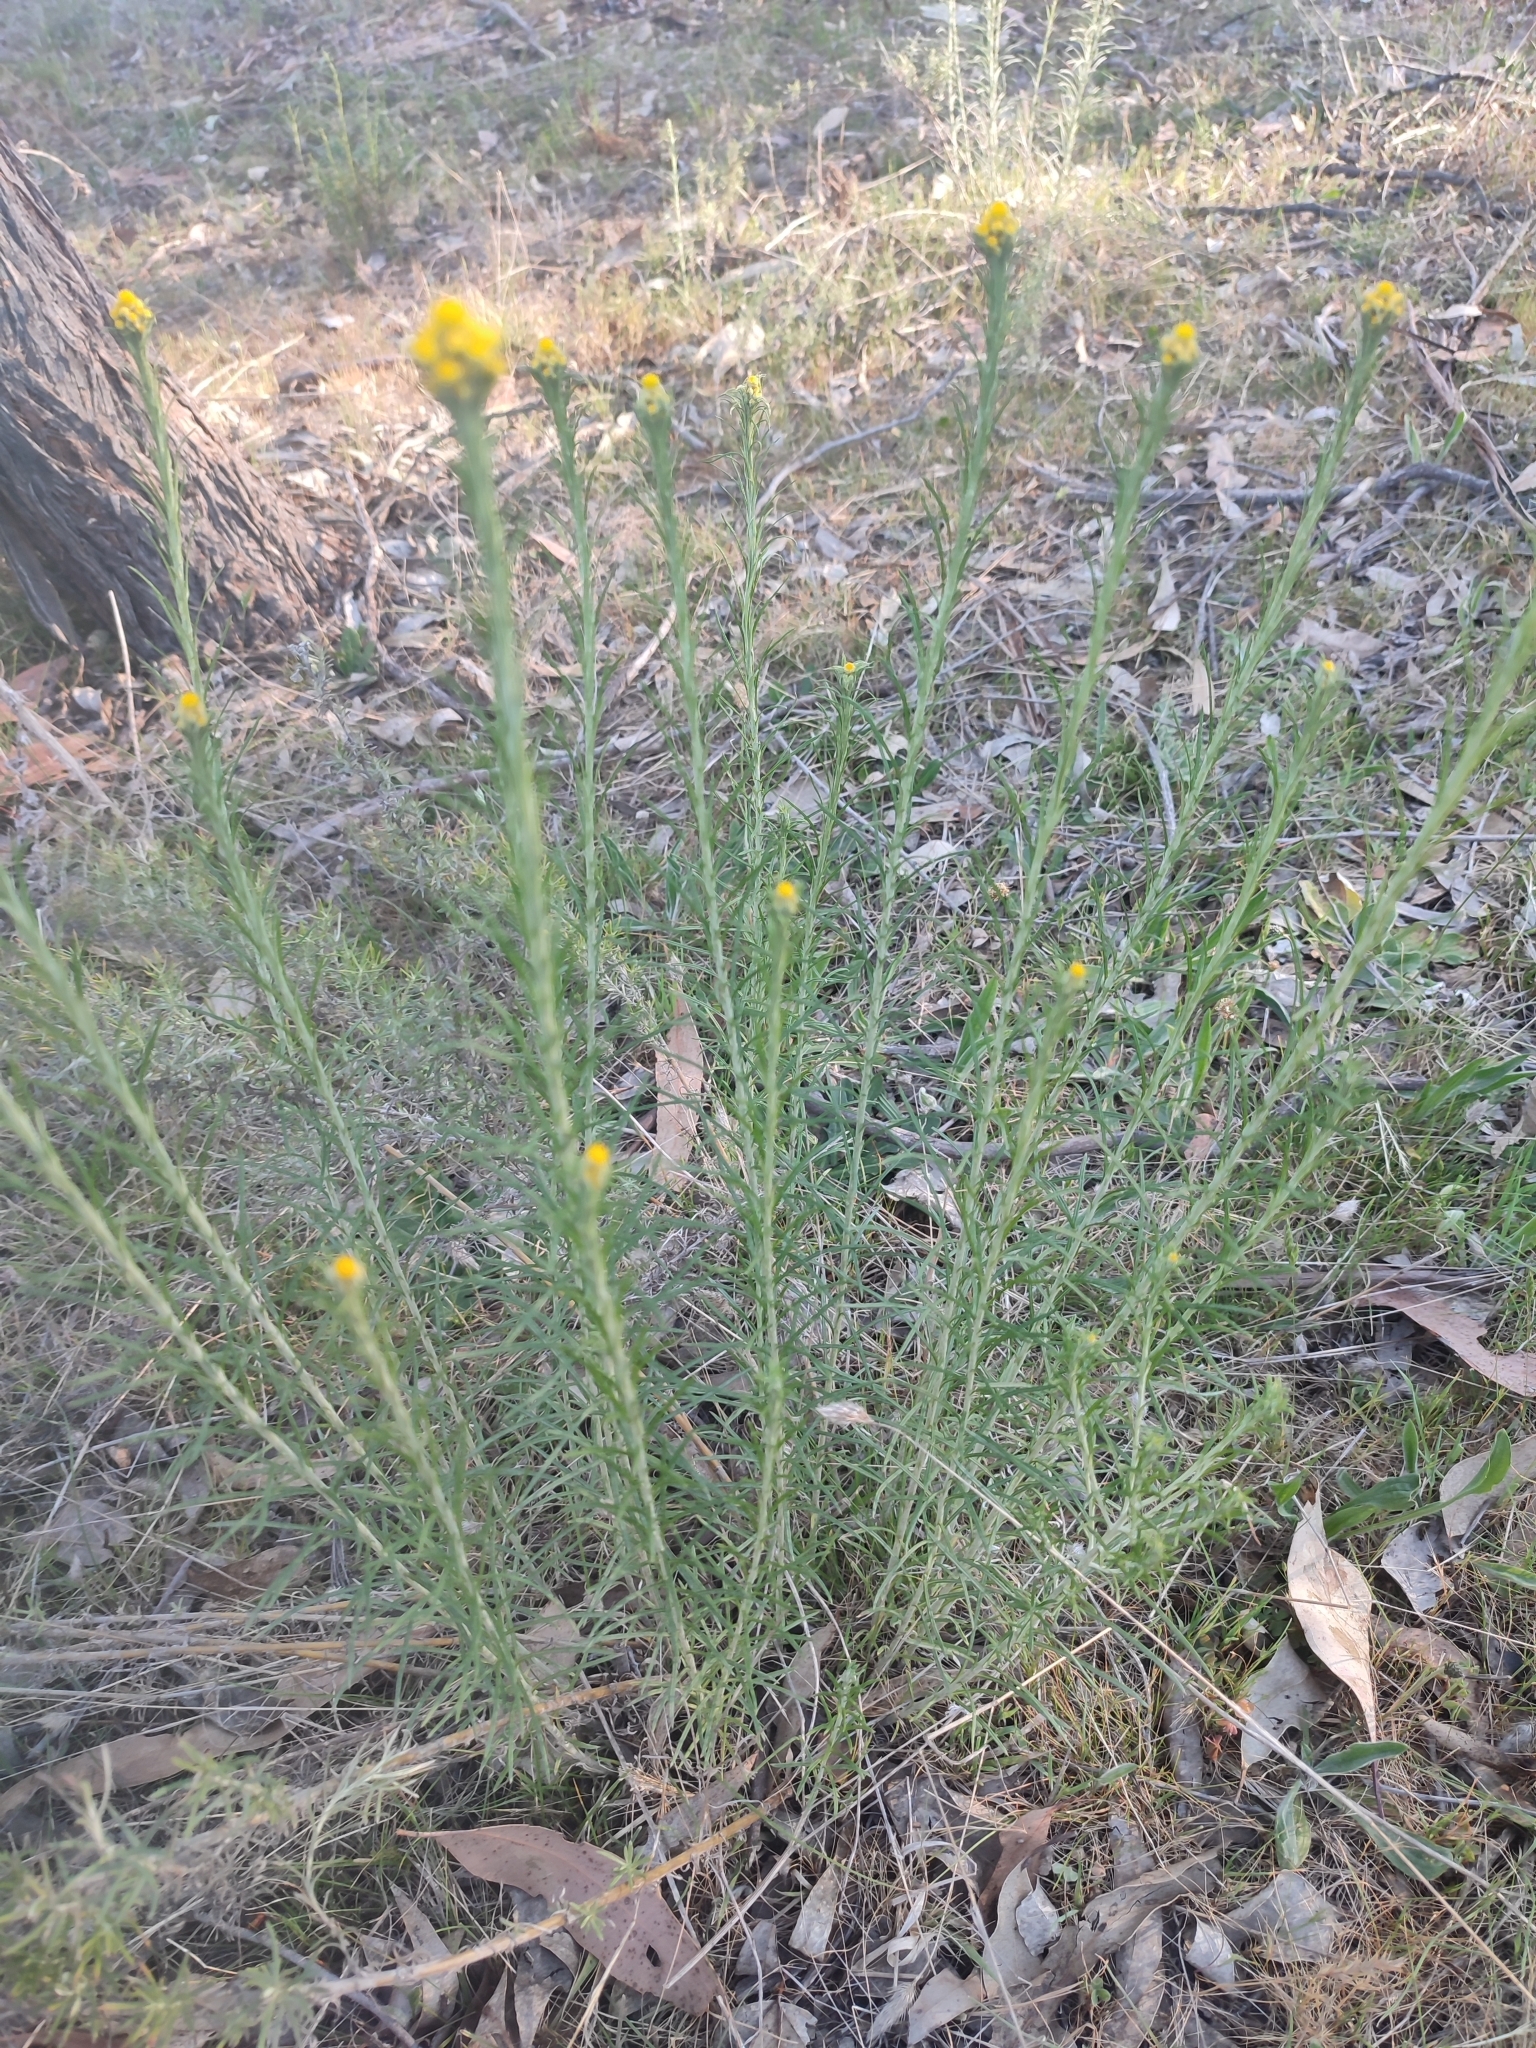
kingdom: Plantae
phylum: Tracheophyta
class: Magnoliopsida
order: Asterales
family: Asteraceae
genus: Chrysocephalum
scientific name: Chrysocephalum semipapposum
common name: Clustered everlasting
